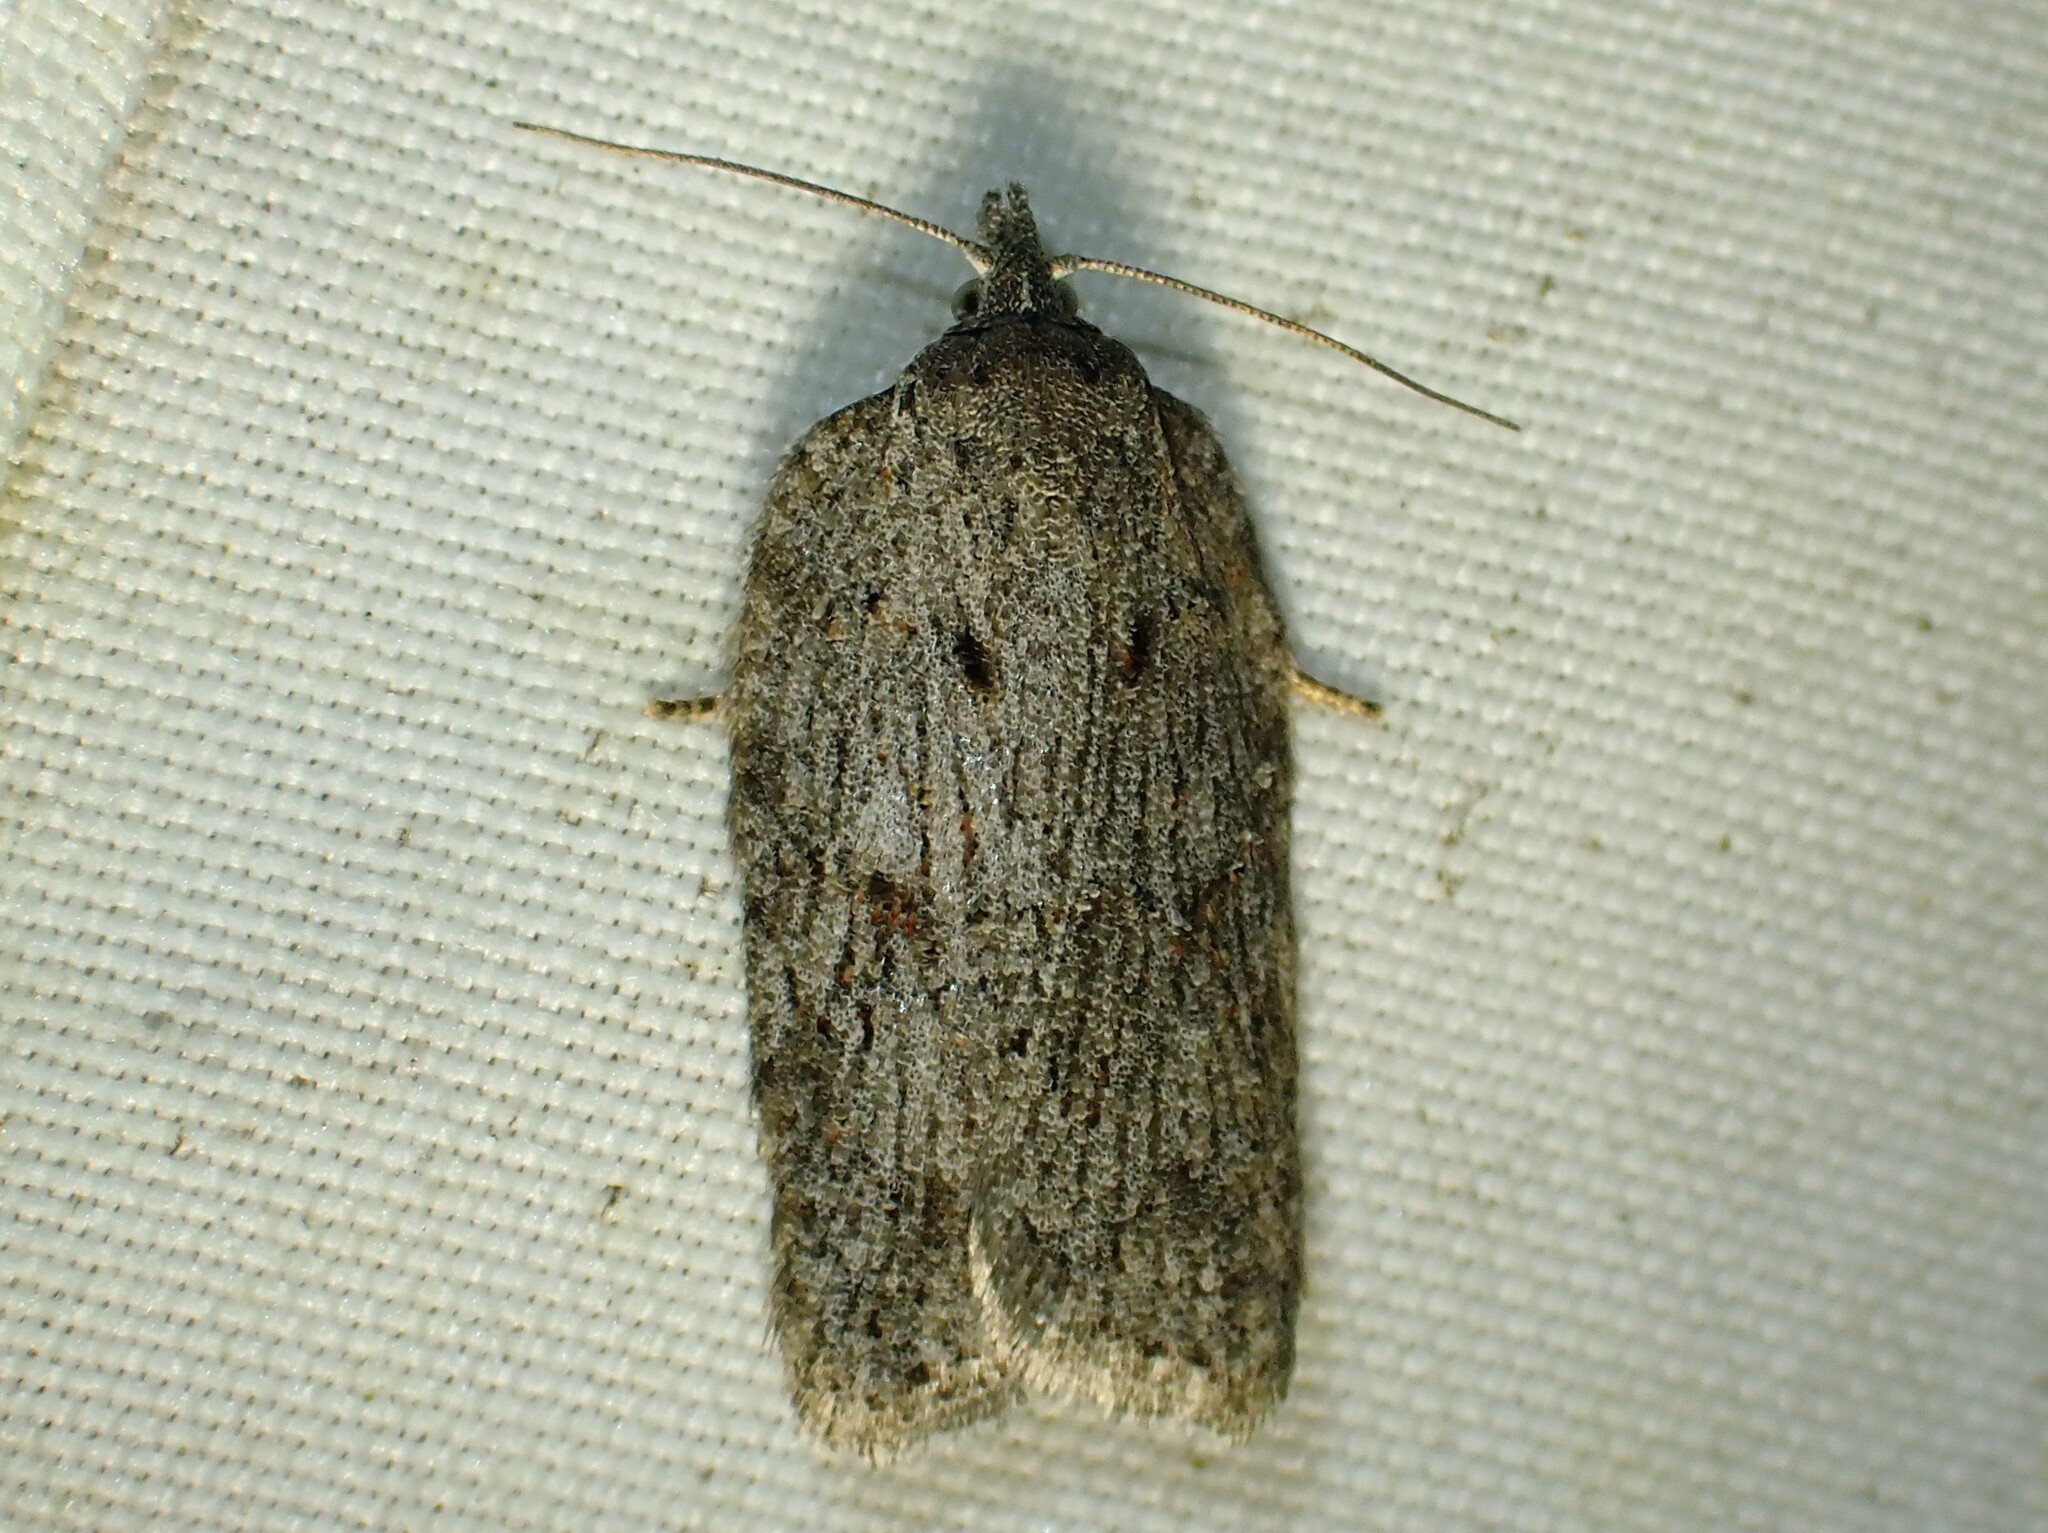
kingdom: Animalia
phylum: Arthropoda
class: Insecta
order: Lepidoptera
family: Tortricidae
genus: Acleris
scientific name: Acleris maximana
